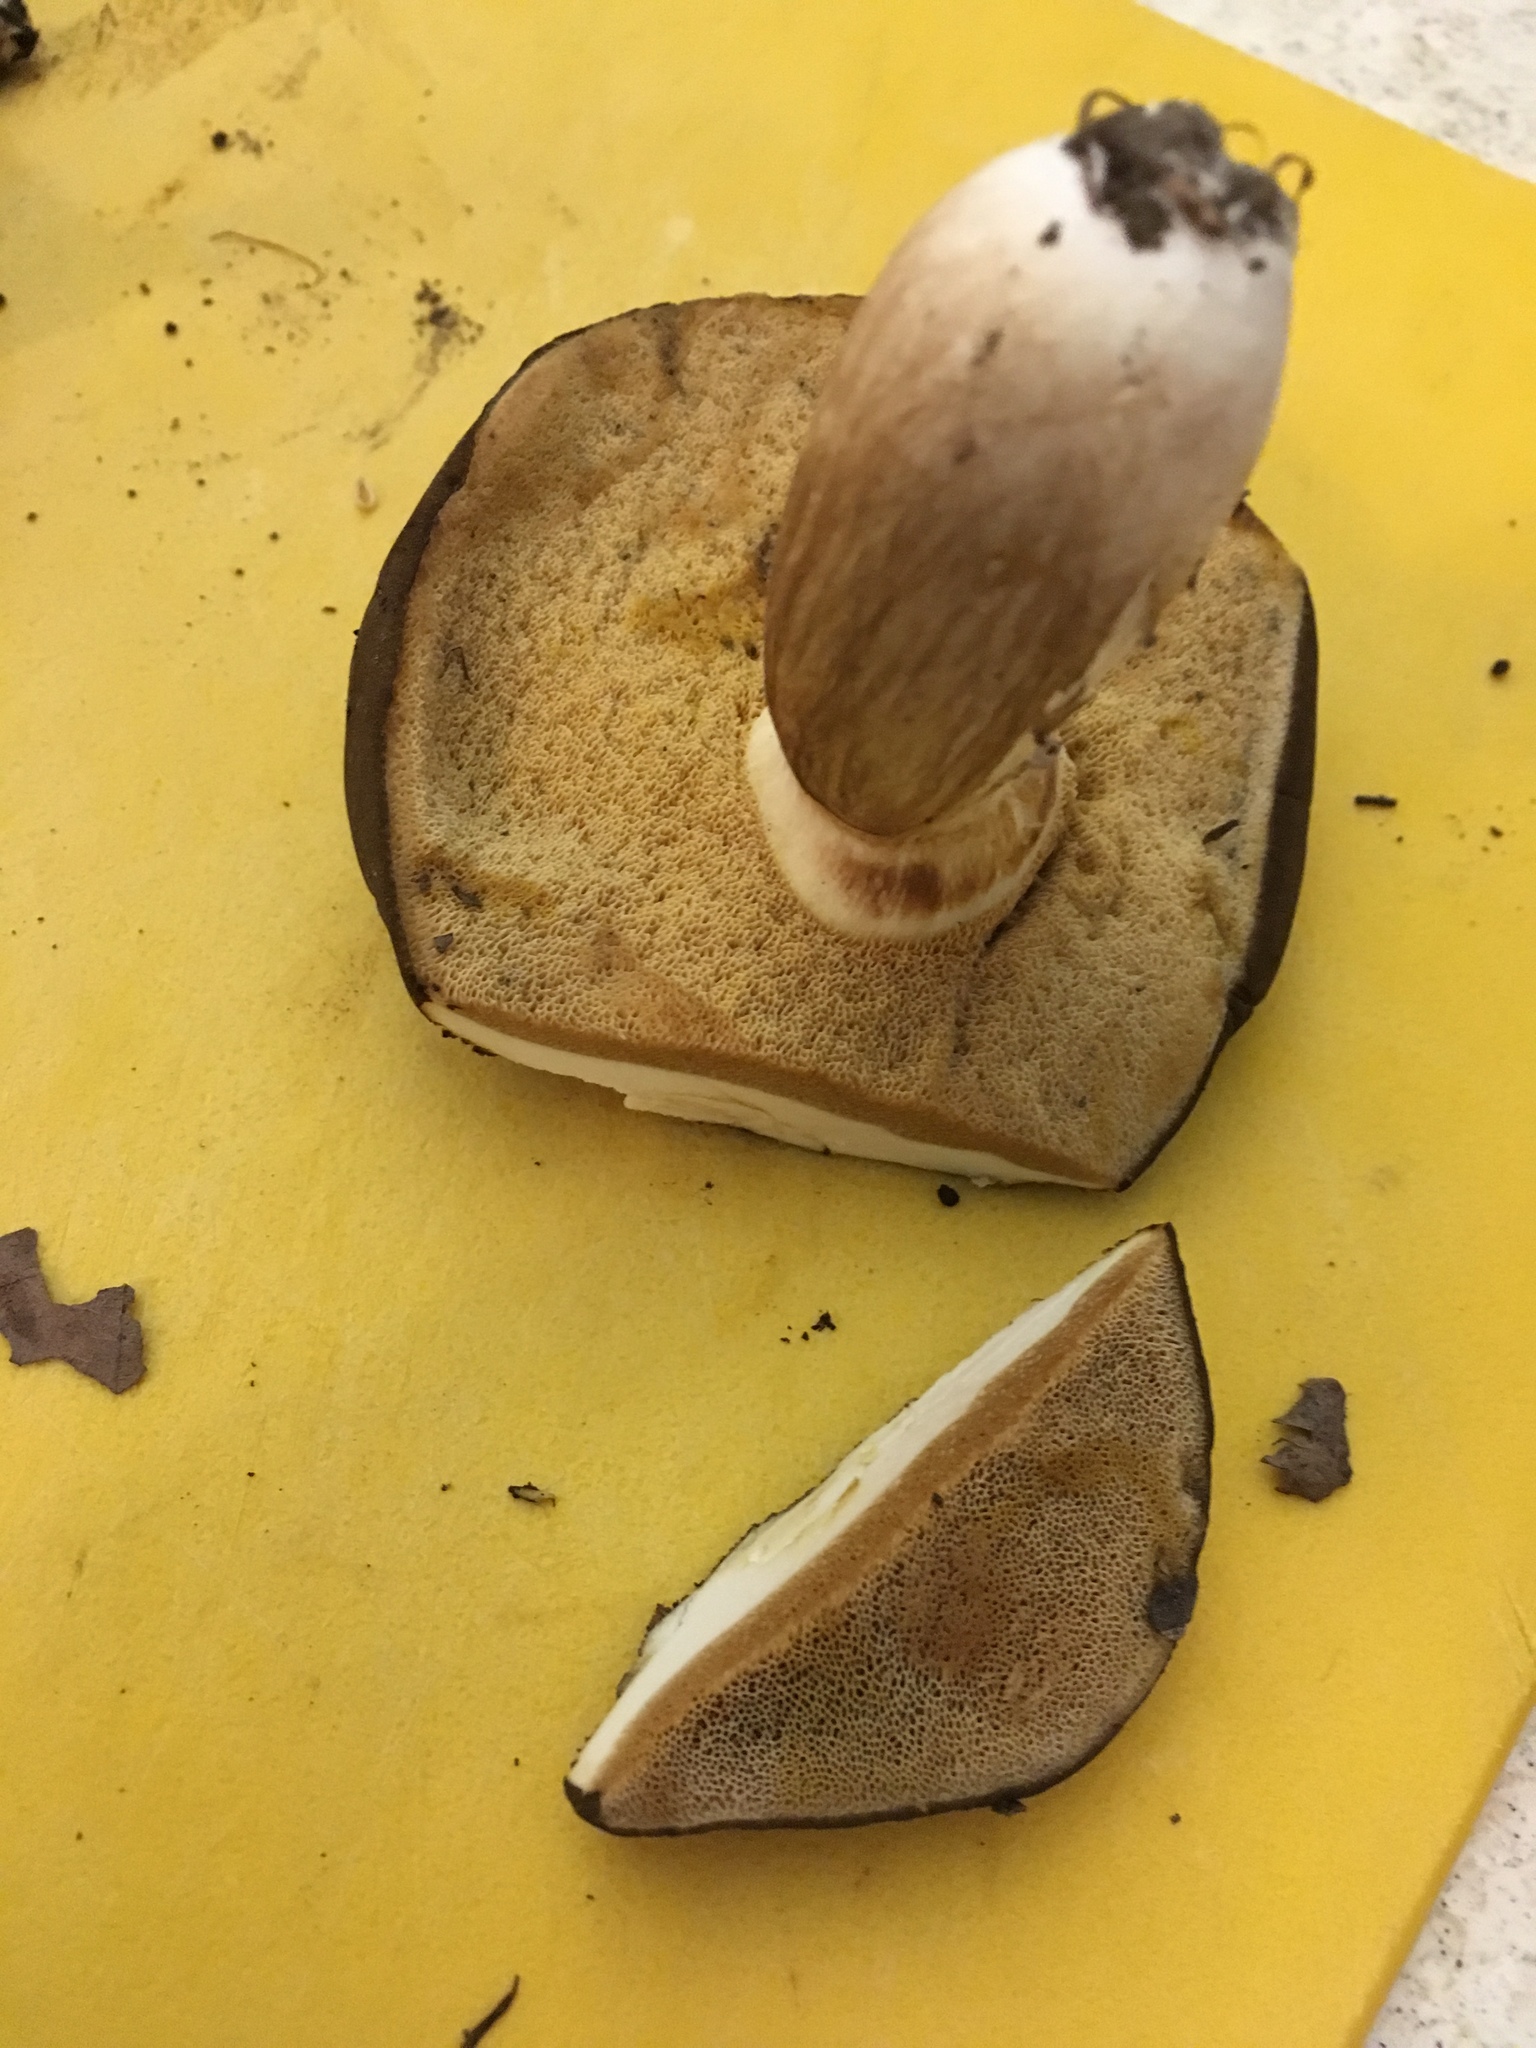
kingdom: Fungi
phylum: Basidiomycota
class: Agaricomycetes
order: Boletales
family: Boletaceae
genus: Xanthoconium
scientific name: Xanthoconium affine
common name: Spotted bolete
